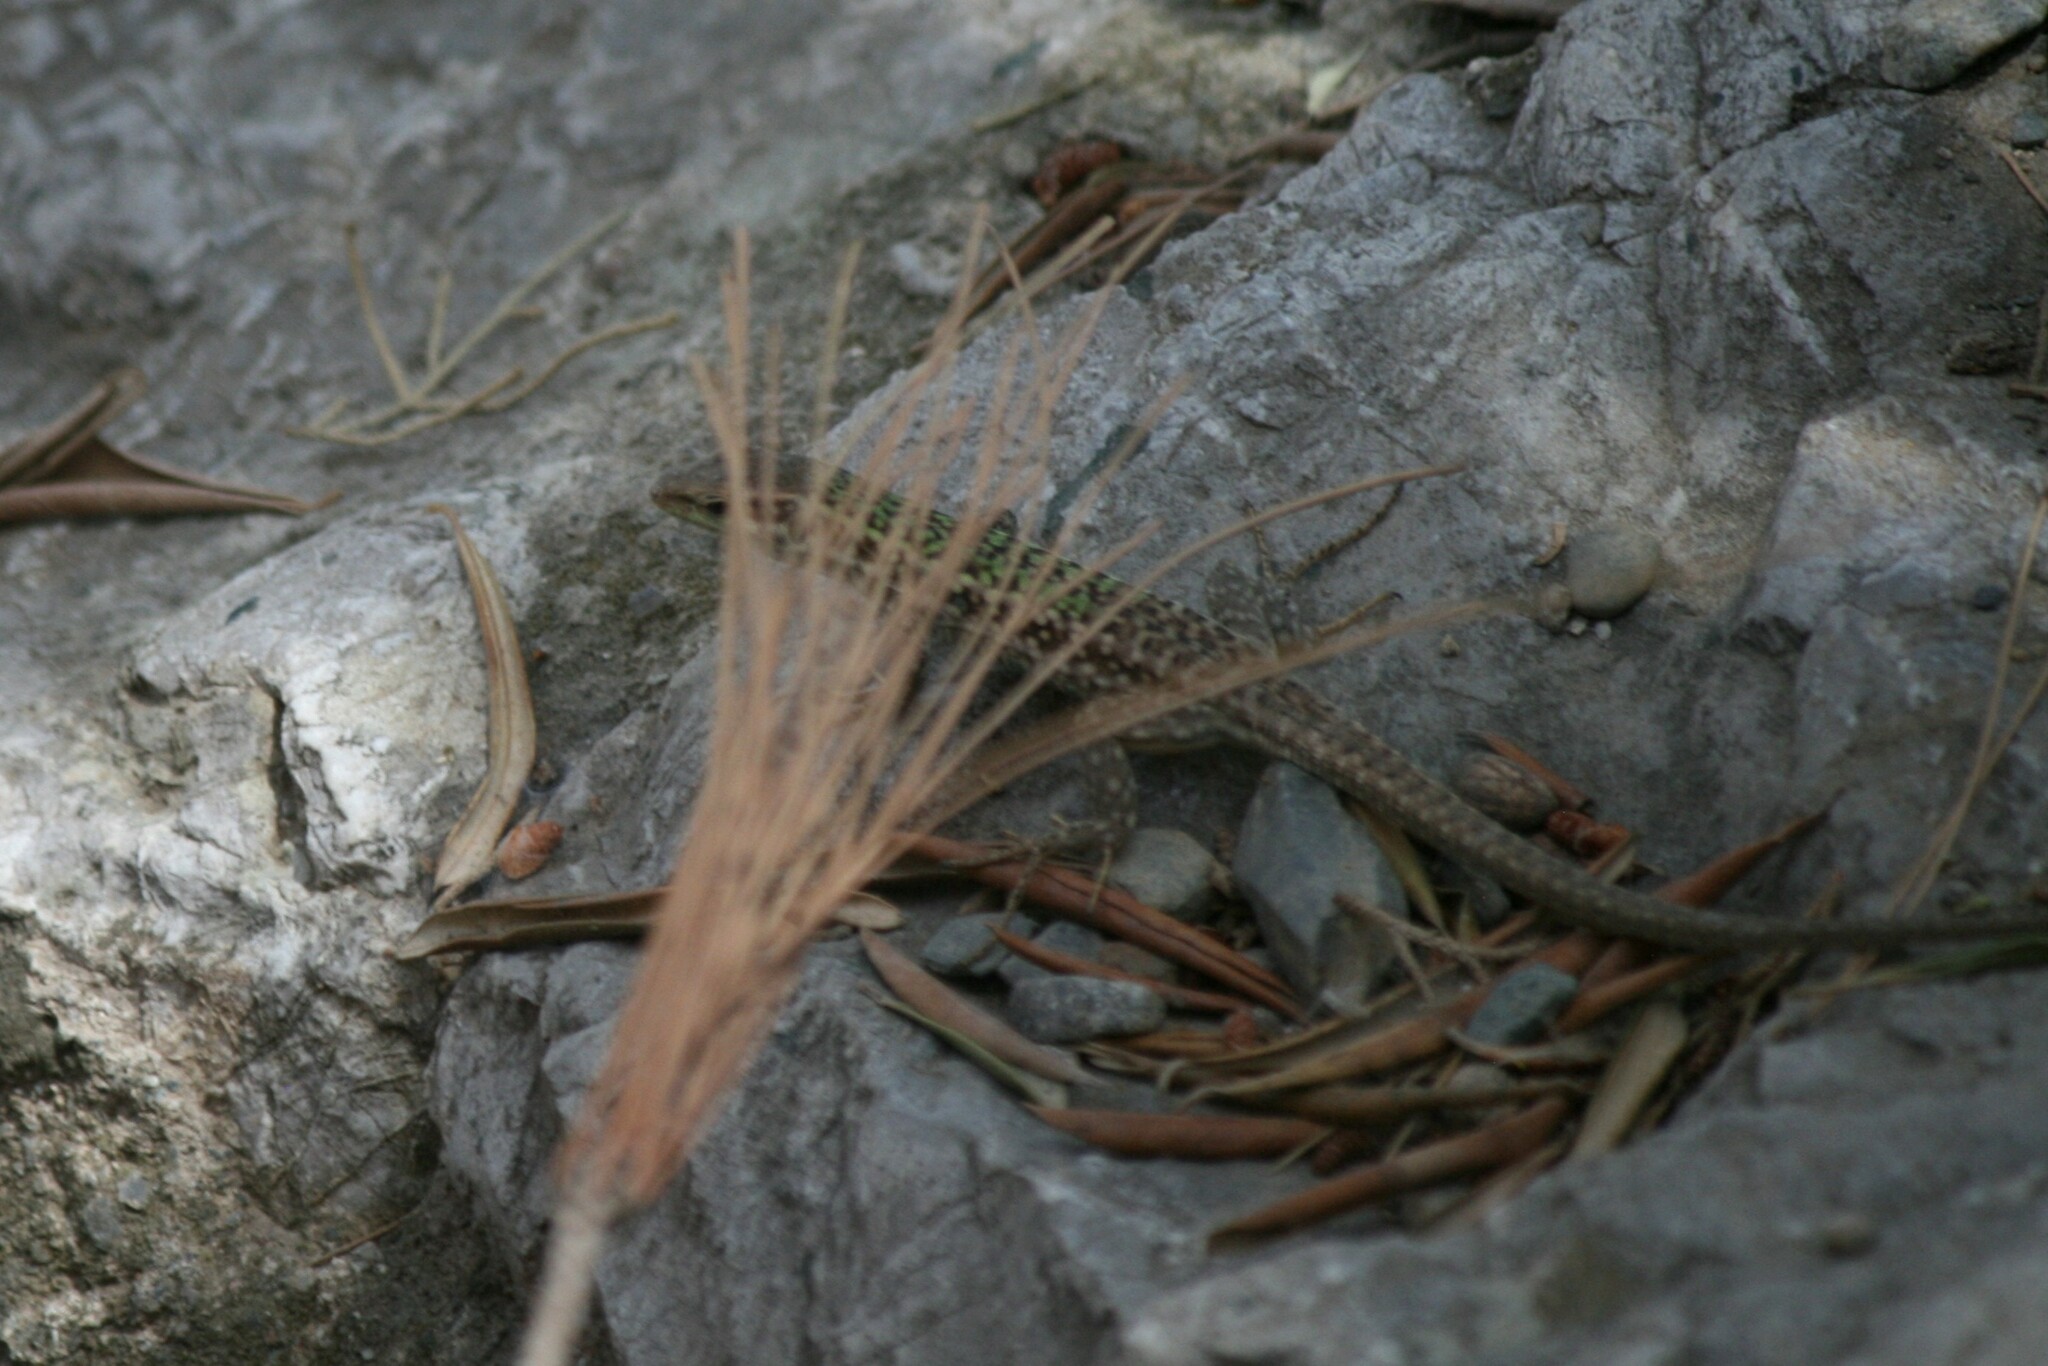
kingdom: Animalia
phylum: Chordata
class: Squamata
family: Lacertidae
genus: Podarcis
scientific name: Podarcis siculus
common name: Italian wall lizard
